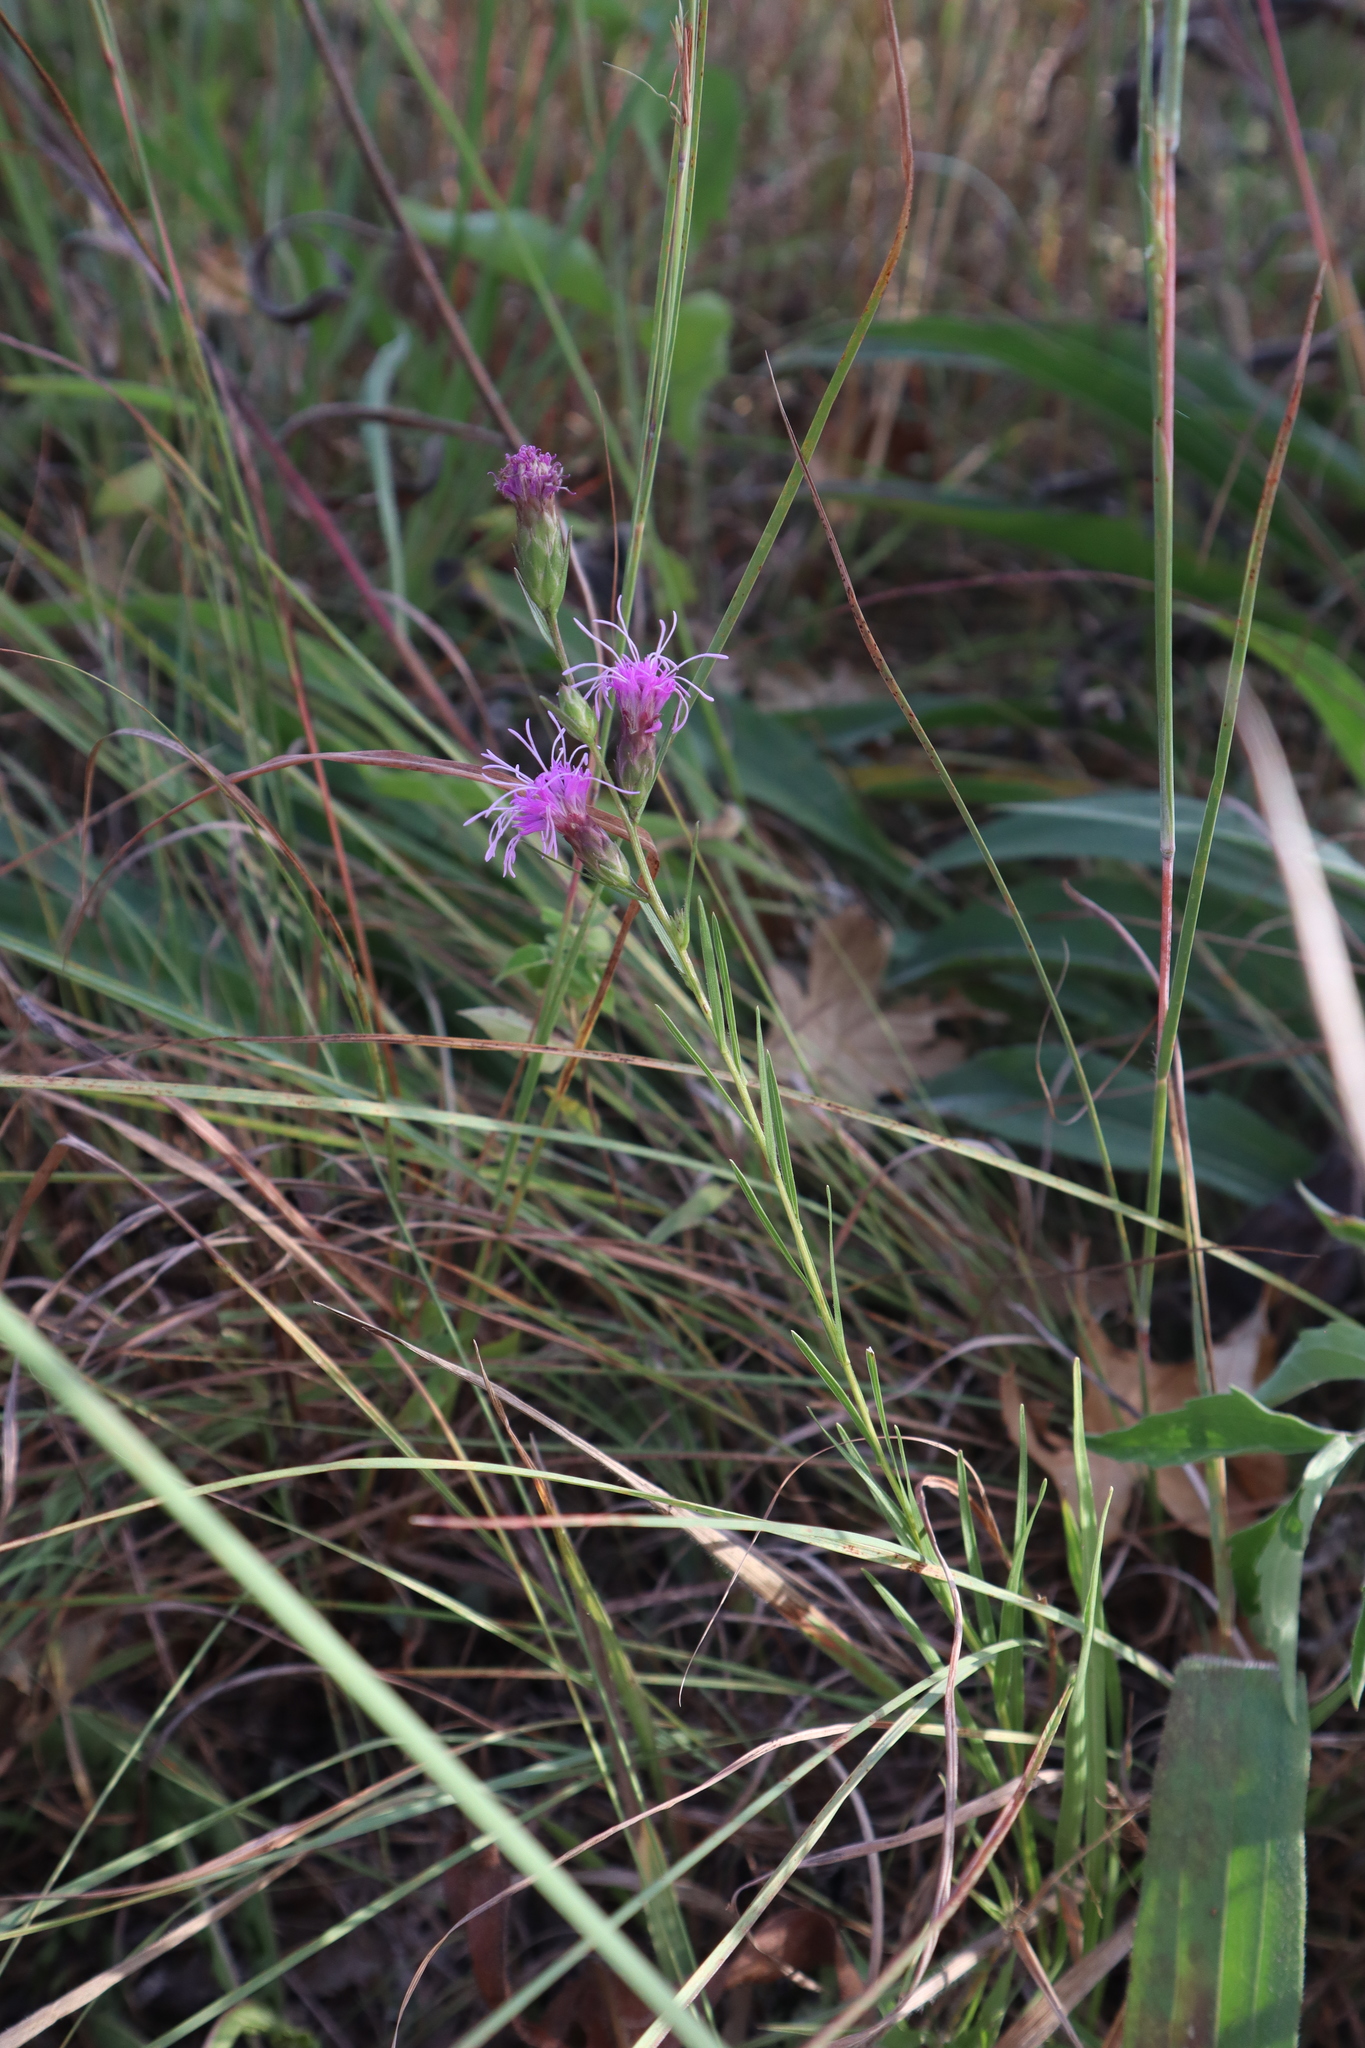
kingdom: Plantae
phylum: Tracheophyta
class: Magnoliopsida
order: Asterales
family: Asteraceae
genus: Liatris
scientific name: Liatris cylindracea
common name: Few-head blazingstar
